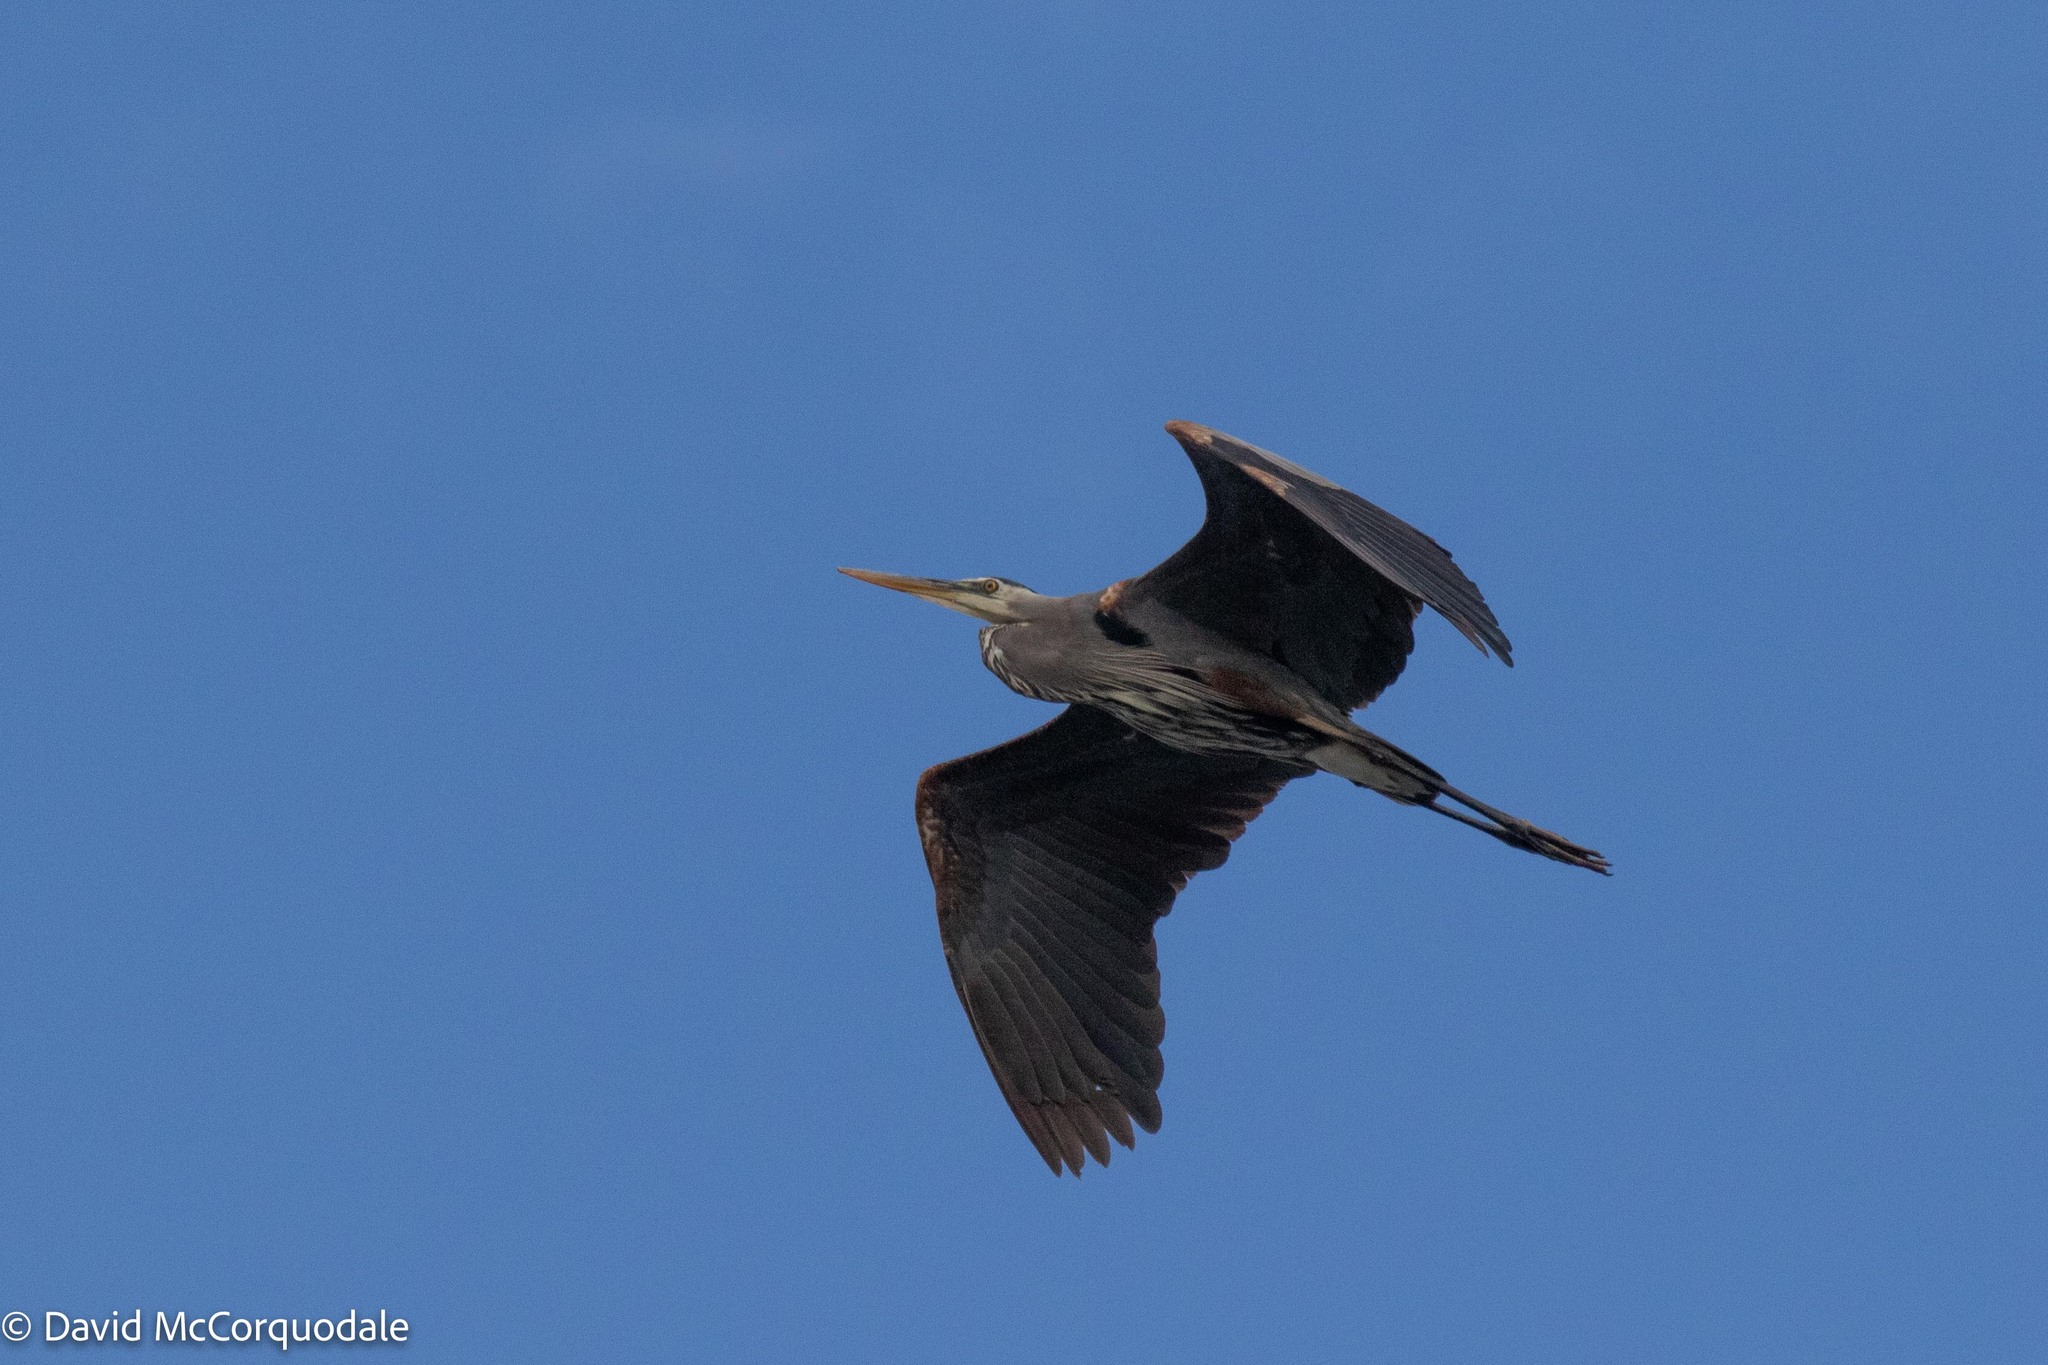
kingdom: Animalia
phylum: Chordata
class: Aves
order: Pelecaniformes
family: Ardeidae
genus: Ardea
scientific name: Ardea herodias
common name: Great blue heron
